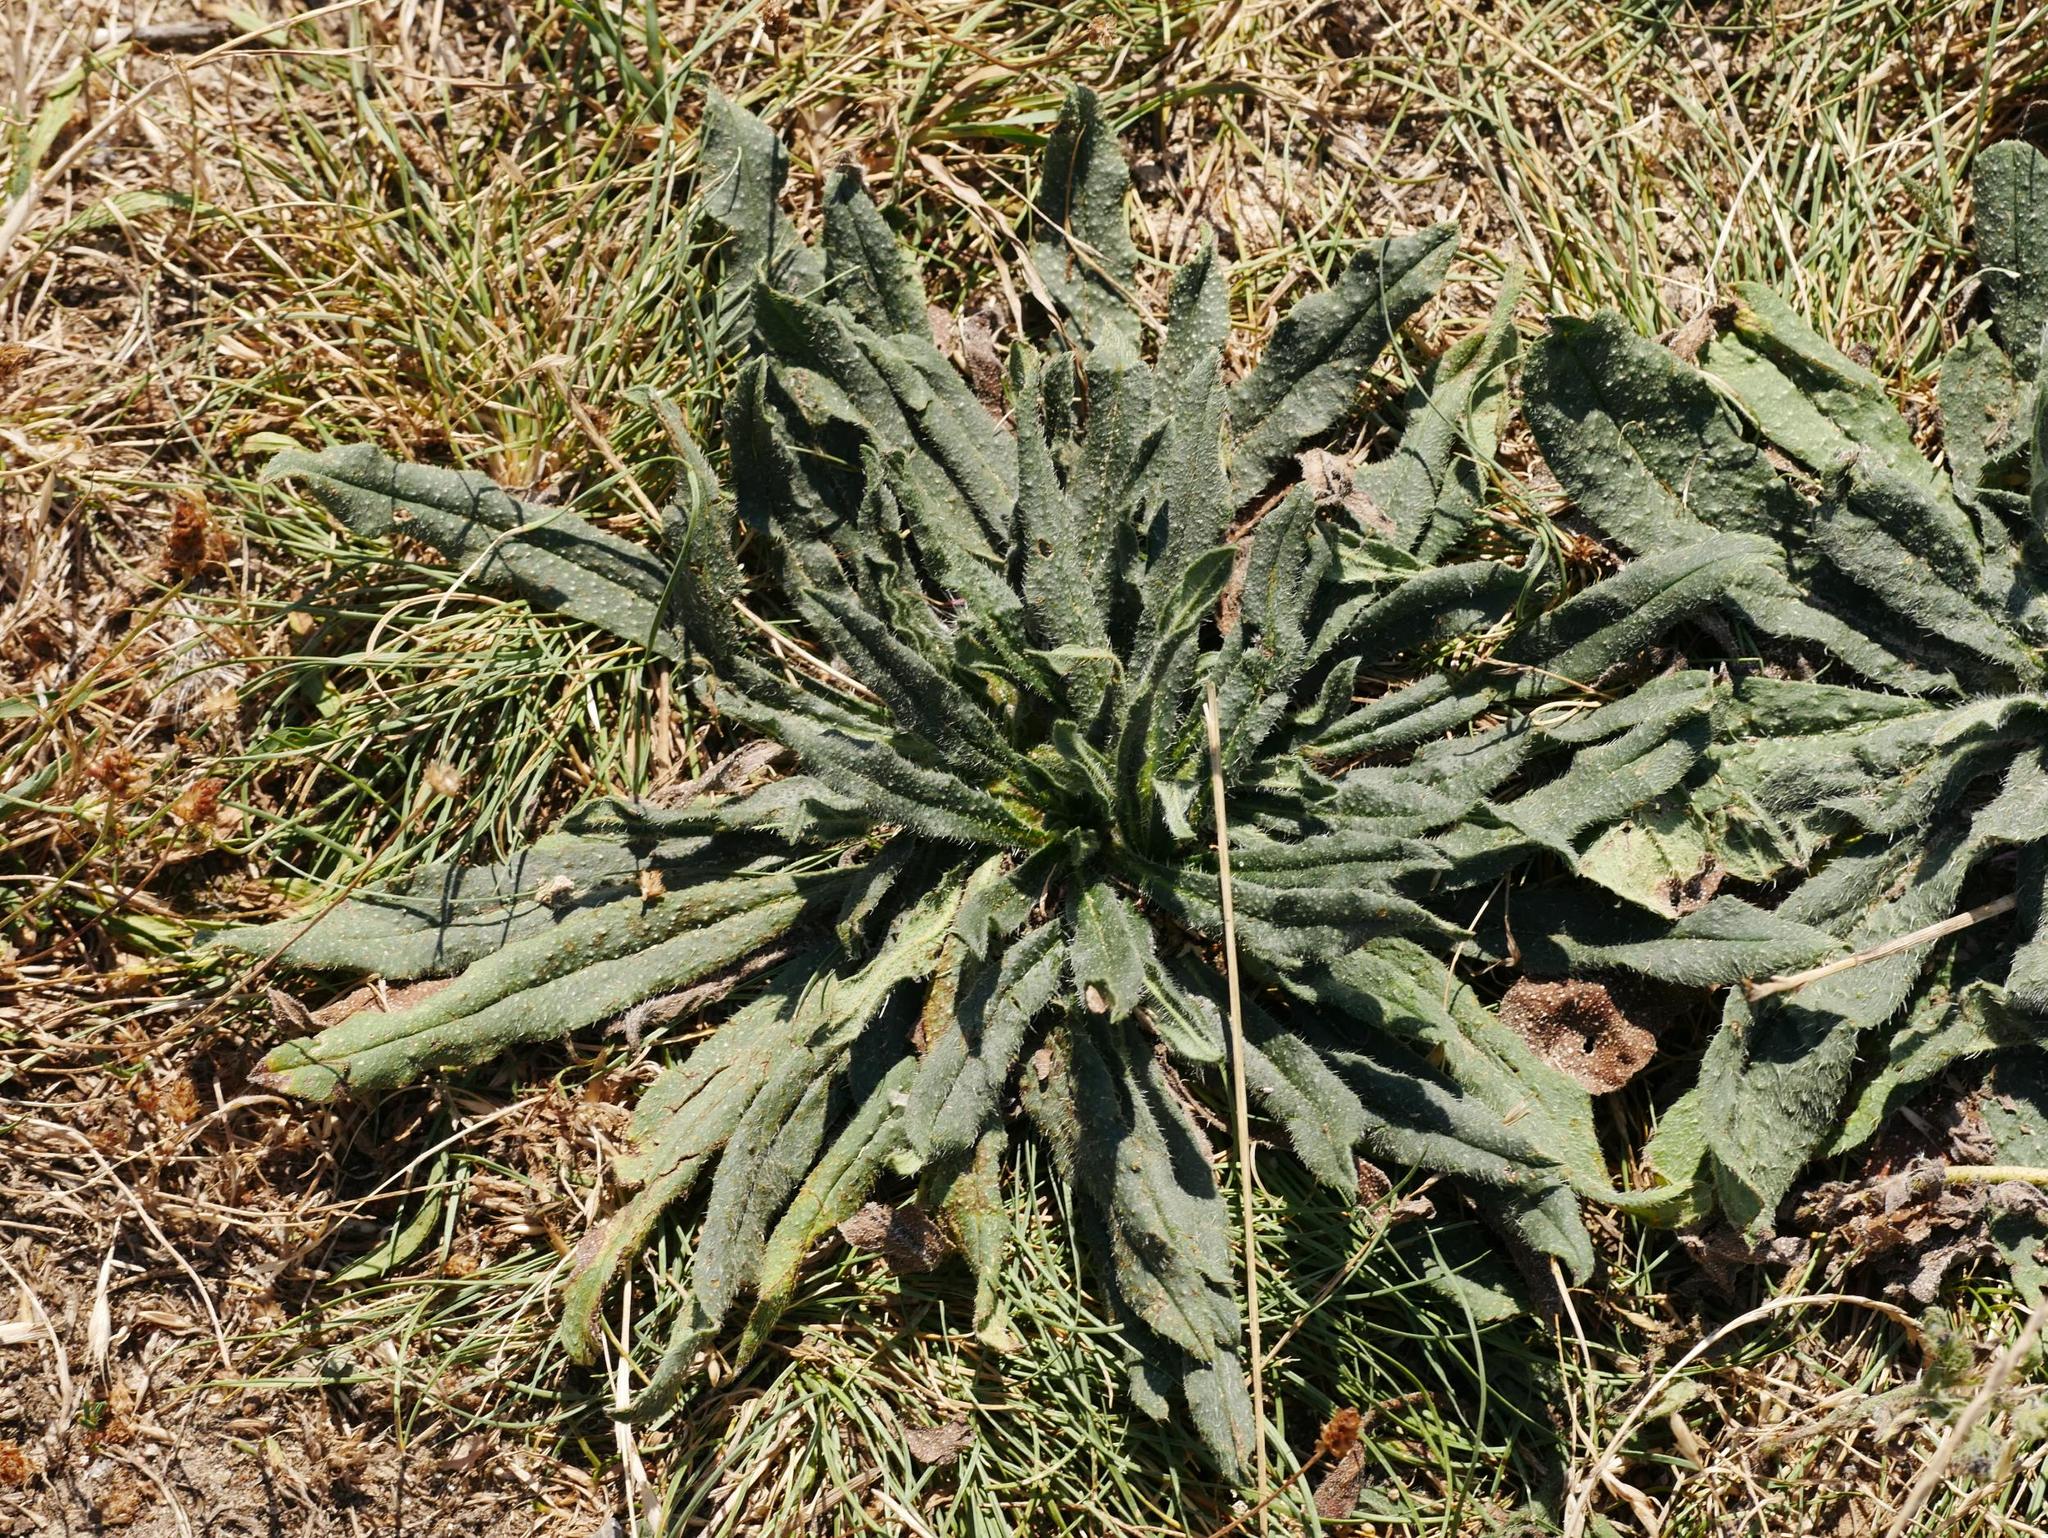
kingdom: Plantae
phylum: Tracheophyta
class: Magnoliopsida
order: Boraginales
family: Boraginaceae
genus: Echium
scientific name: Echium vulgare
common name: Common viper's bugloss
